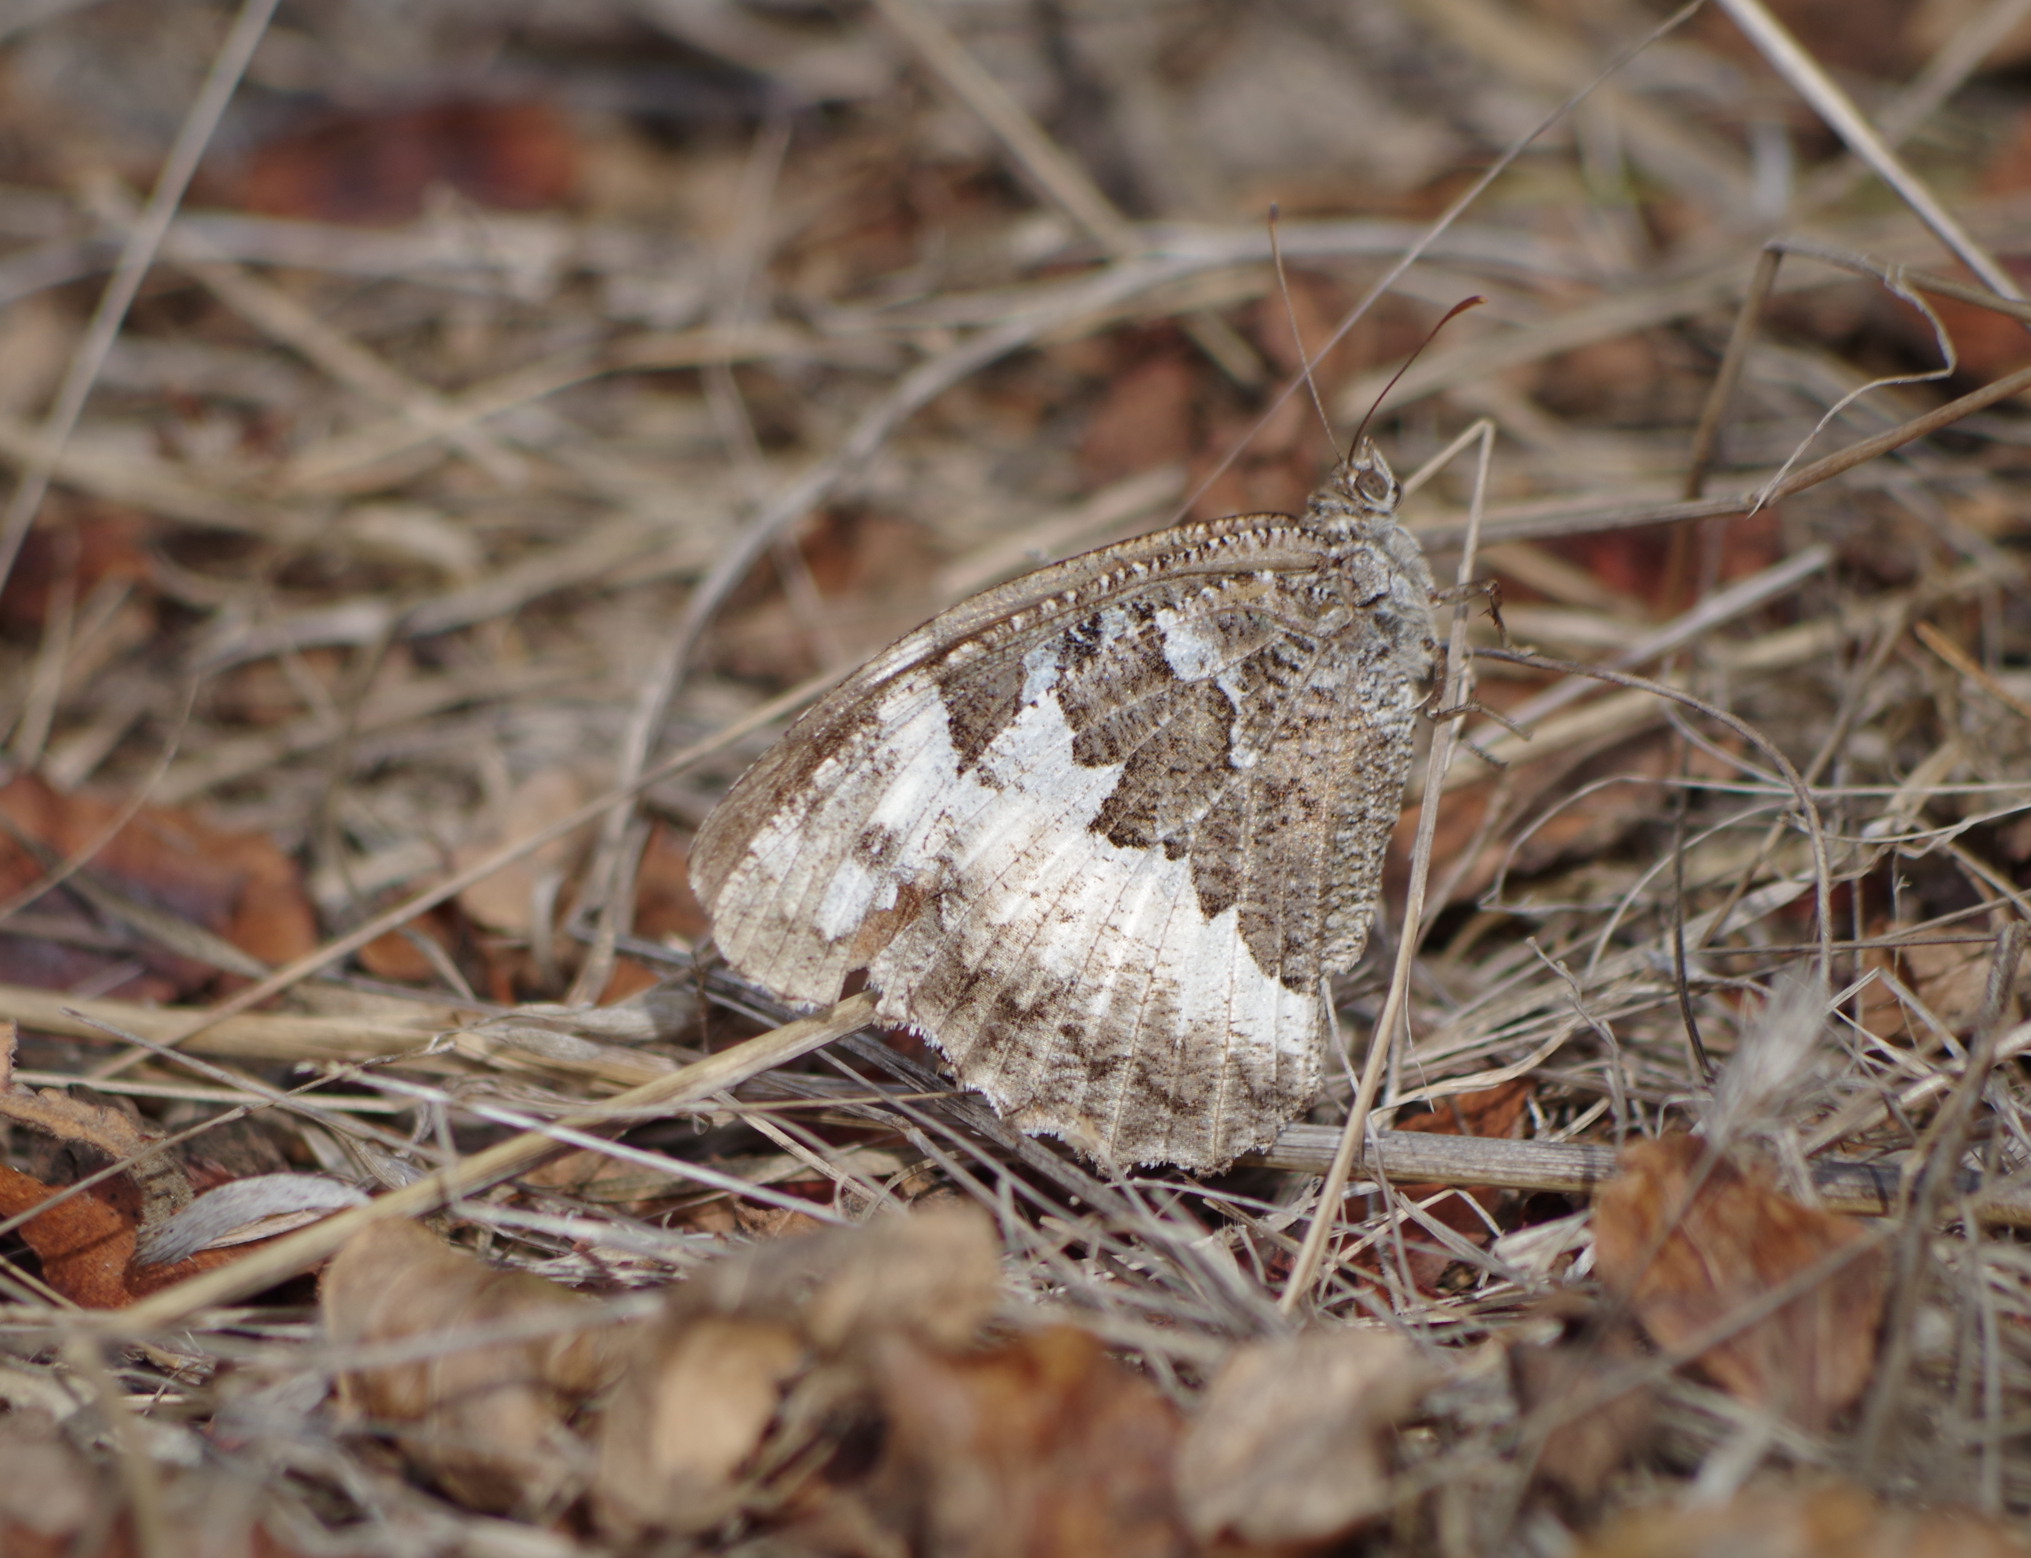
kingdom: Animalia
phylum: Arthropoda
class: Insecta
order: Lepidoptera
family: Lycaenidae
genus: Loweia
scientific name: Loweia tityrus
